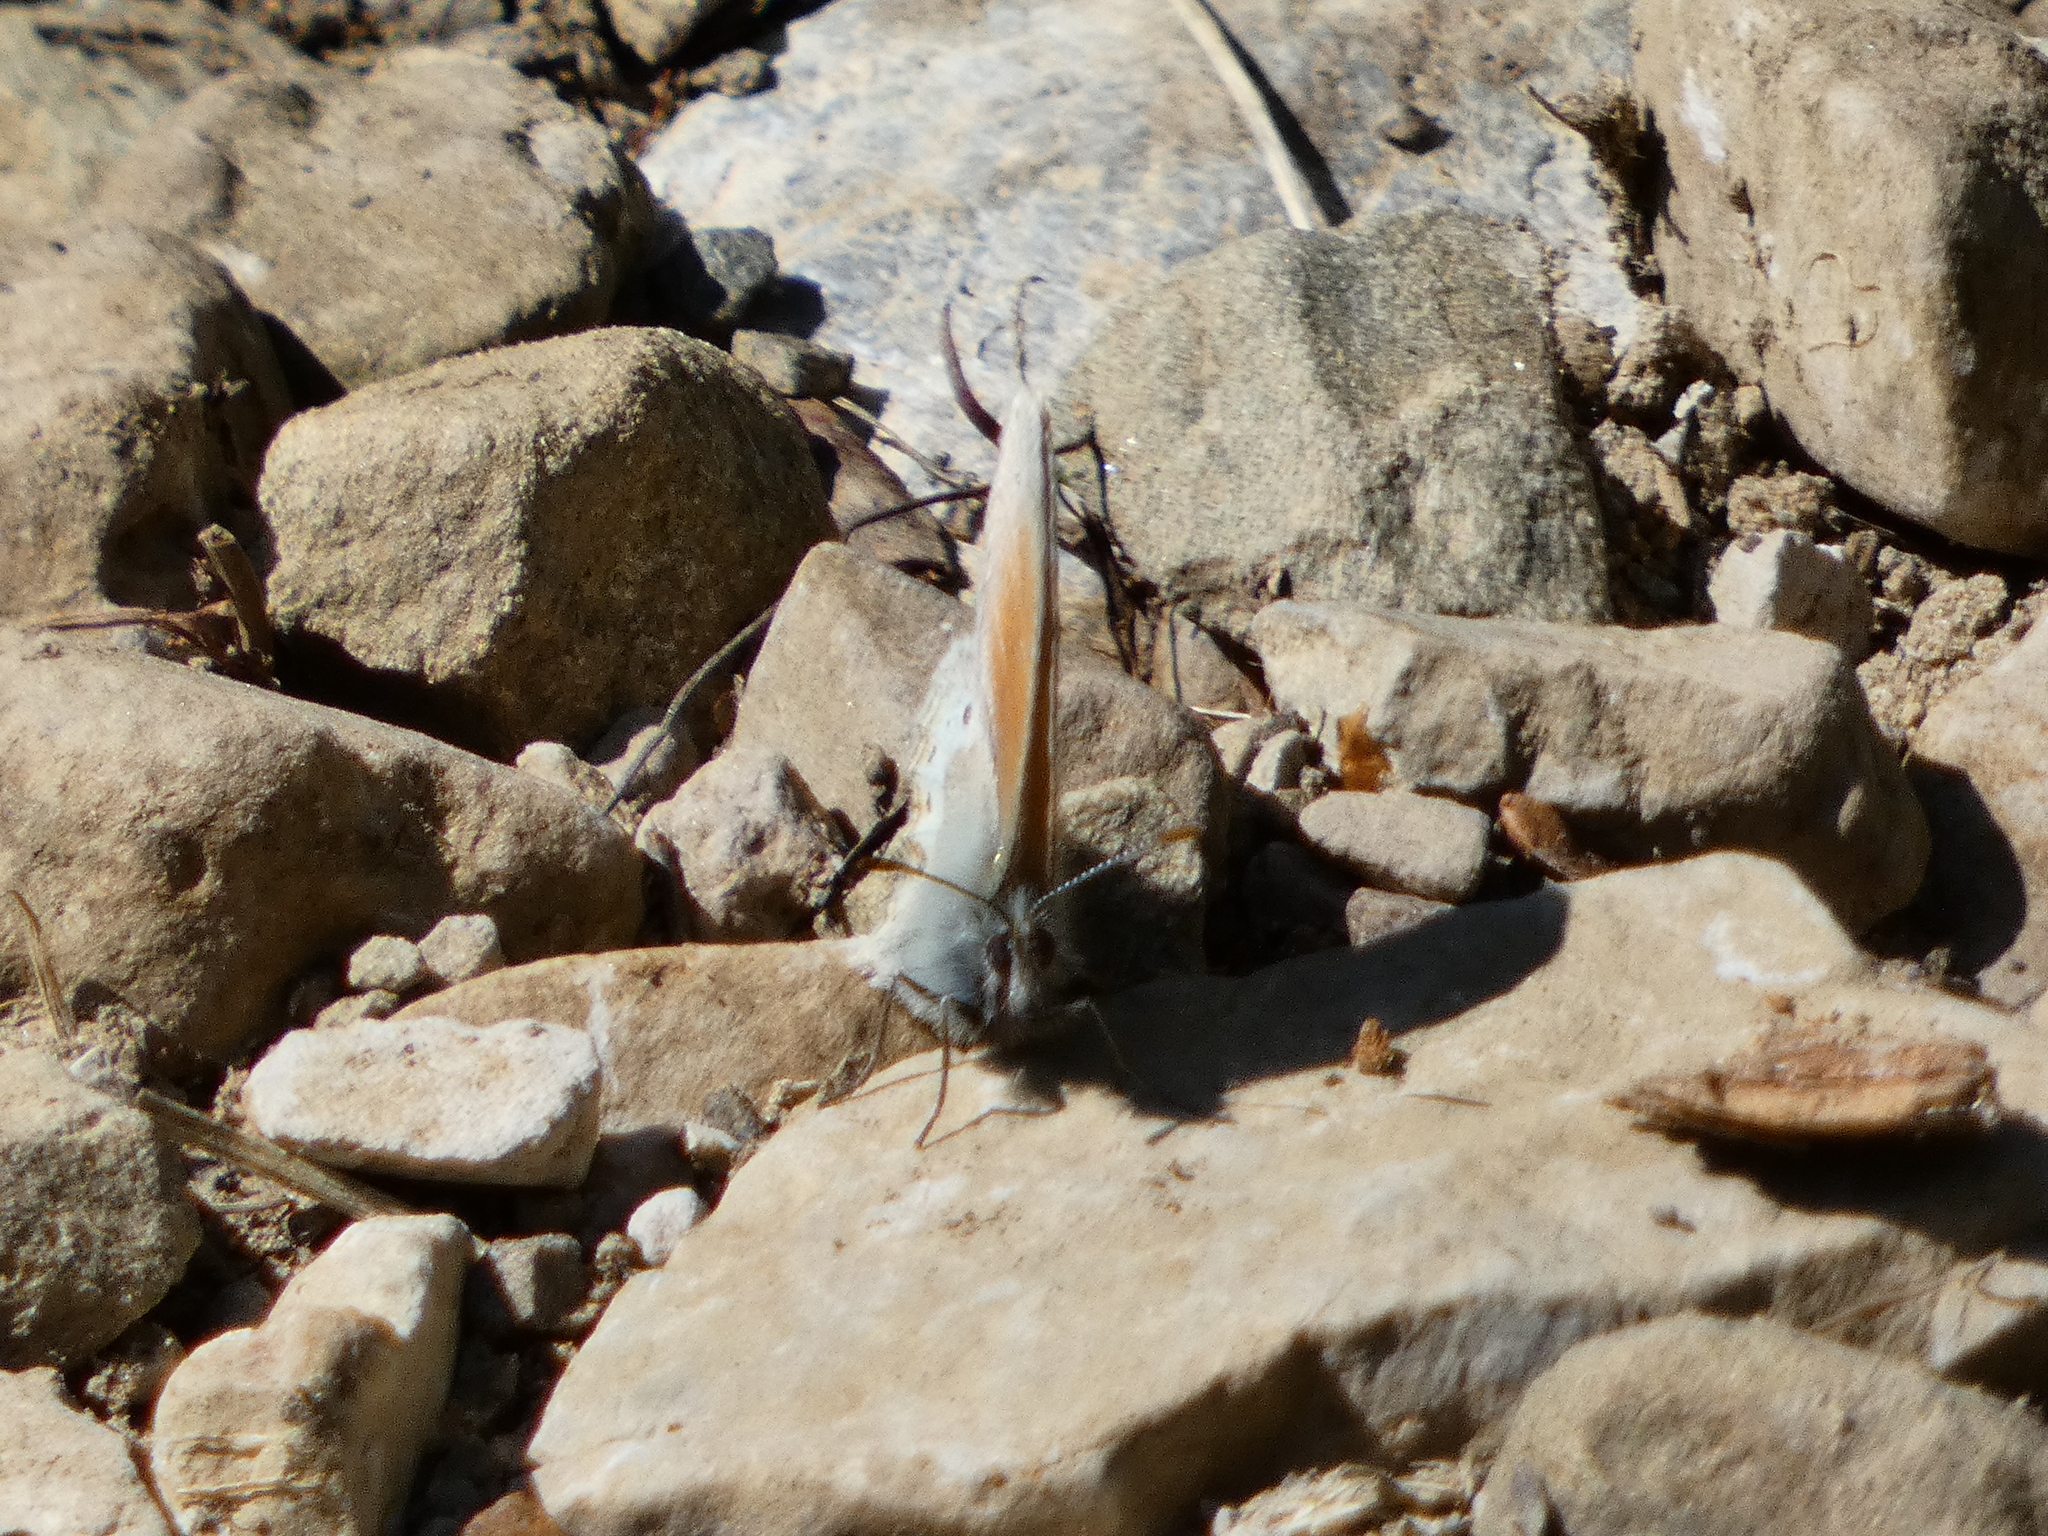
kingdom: Animalia
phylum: Arthropoda
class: Insecta
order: Lepidoptera
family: Nymphalidae
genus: Coenonympha
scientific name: Coenonympha
